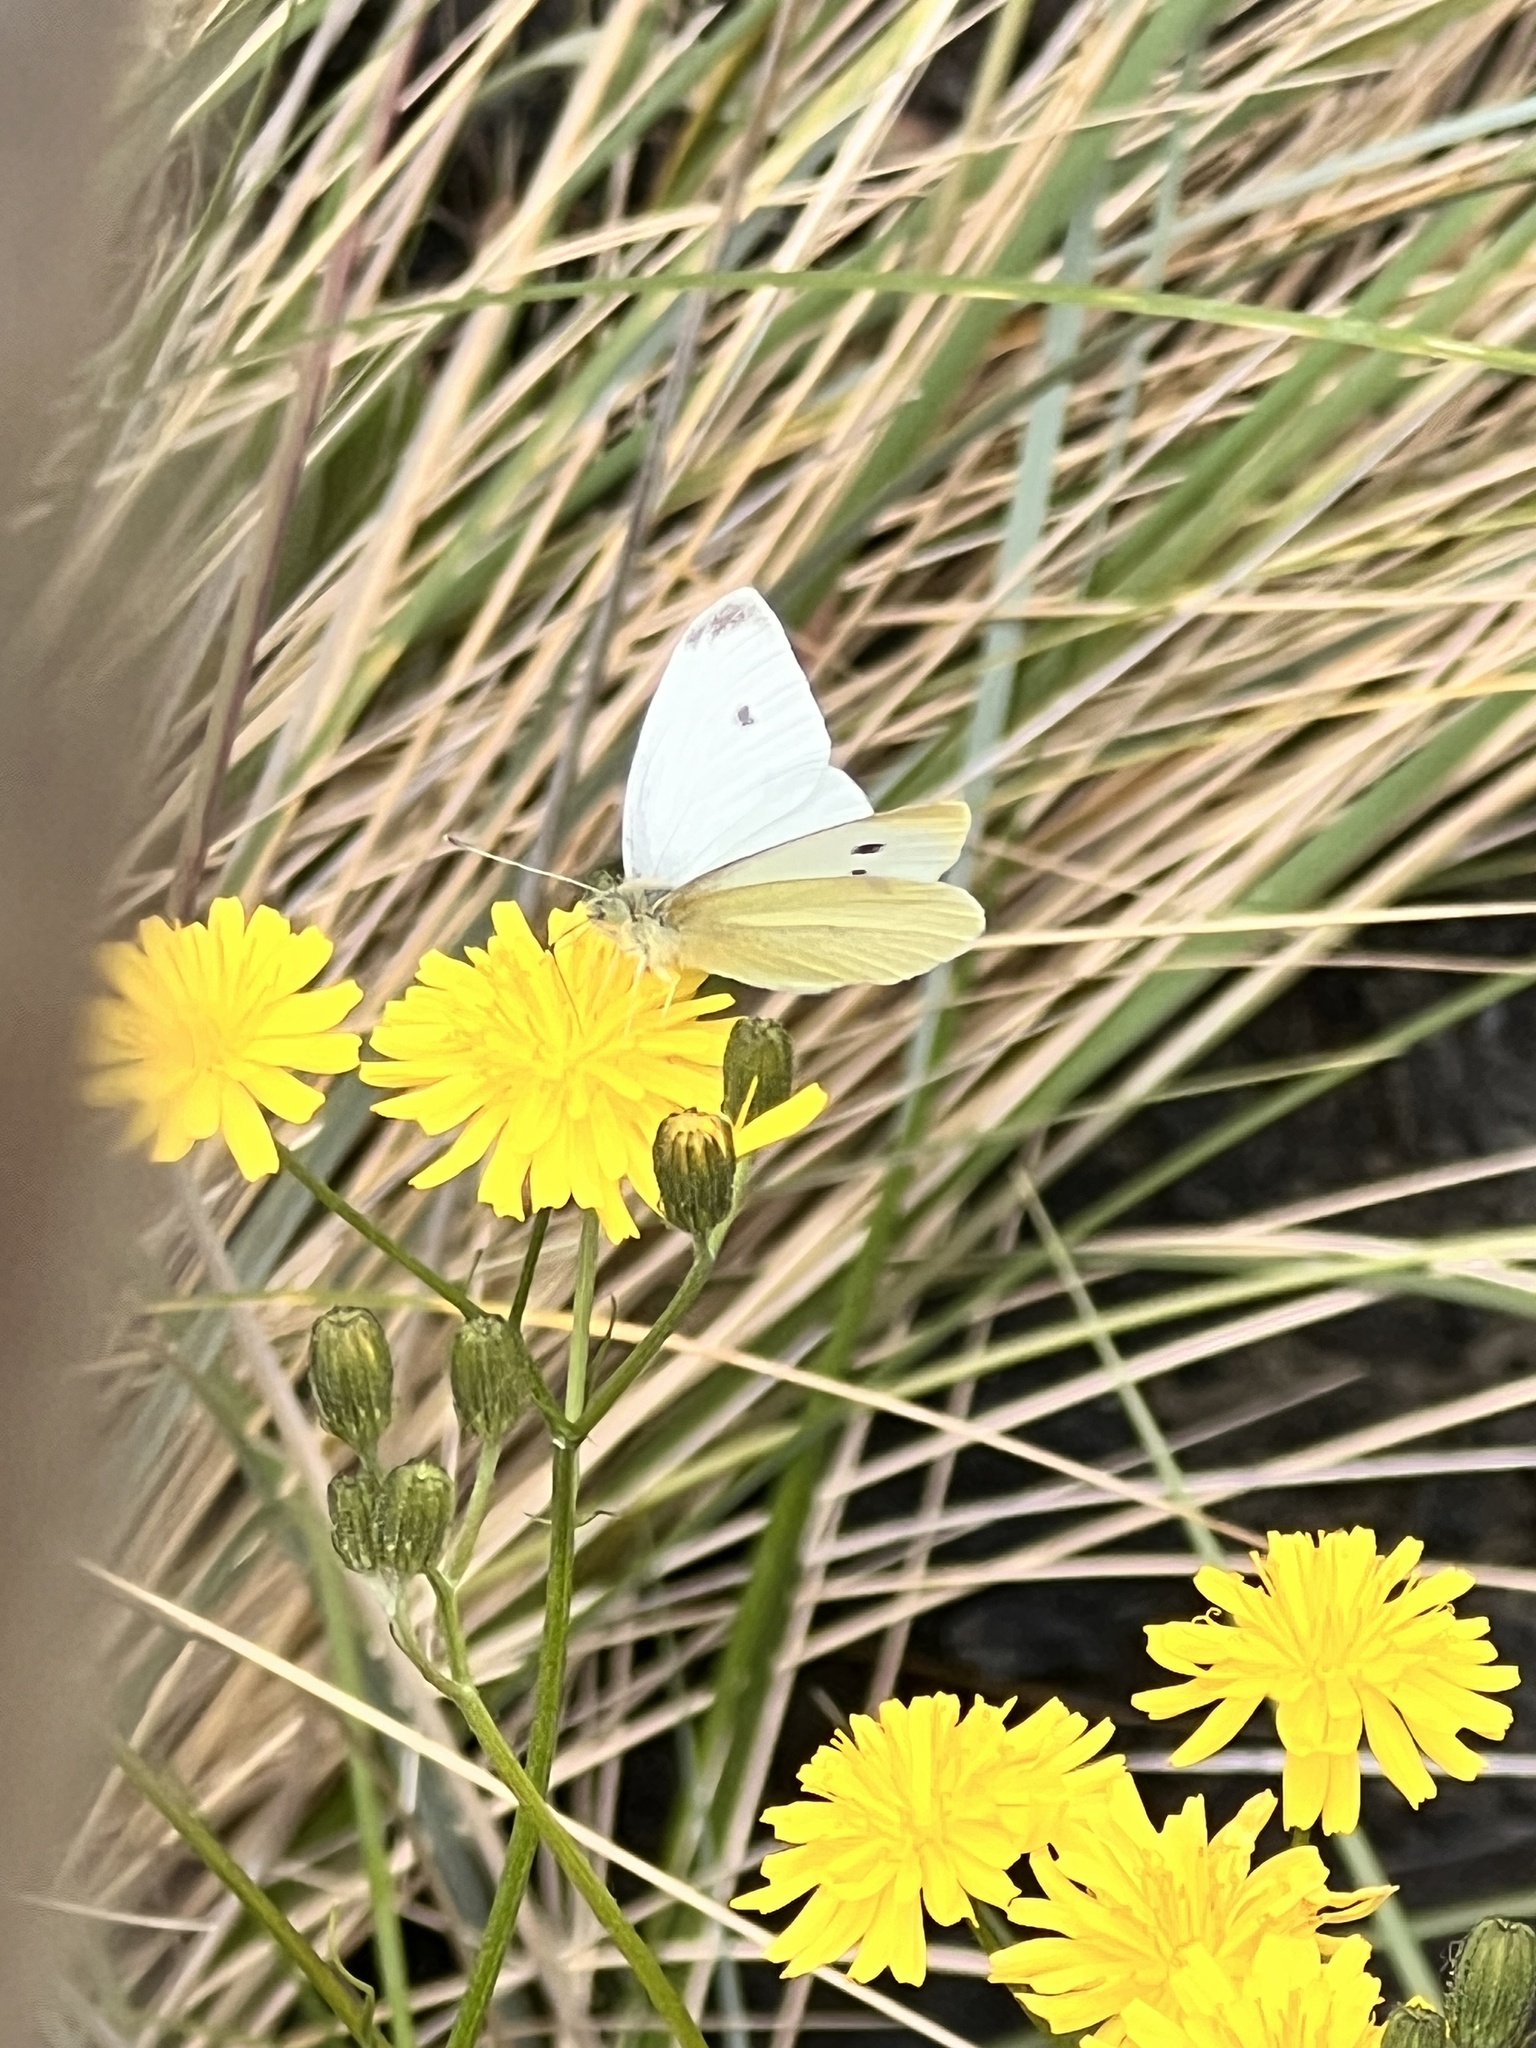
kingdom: Animalia
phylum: Arthropoda
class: Insecta
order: Lepidoptera
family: Pieridae
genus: Pieris
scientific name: Pieris rapae
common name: Small white
